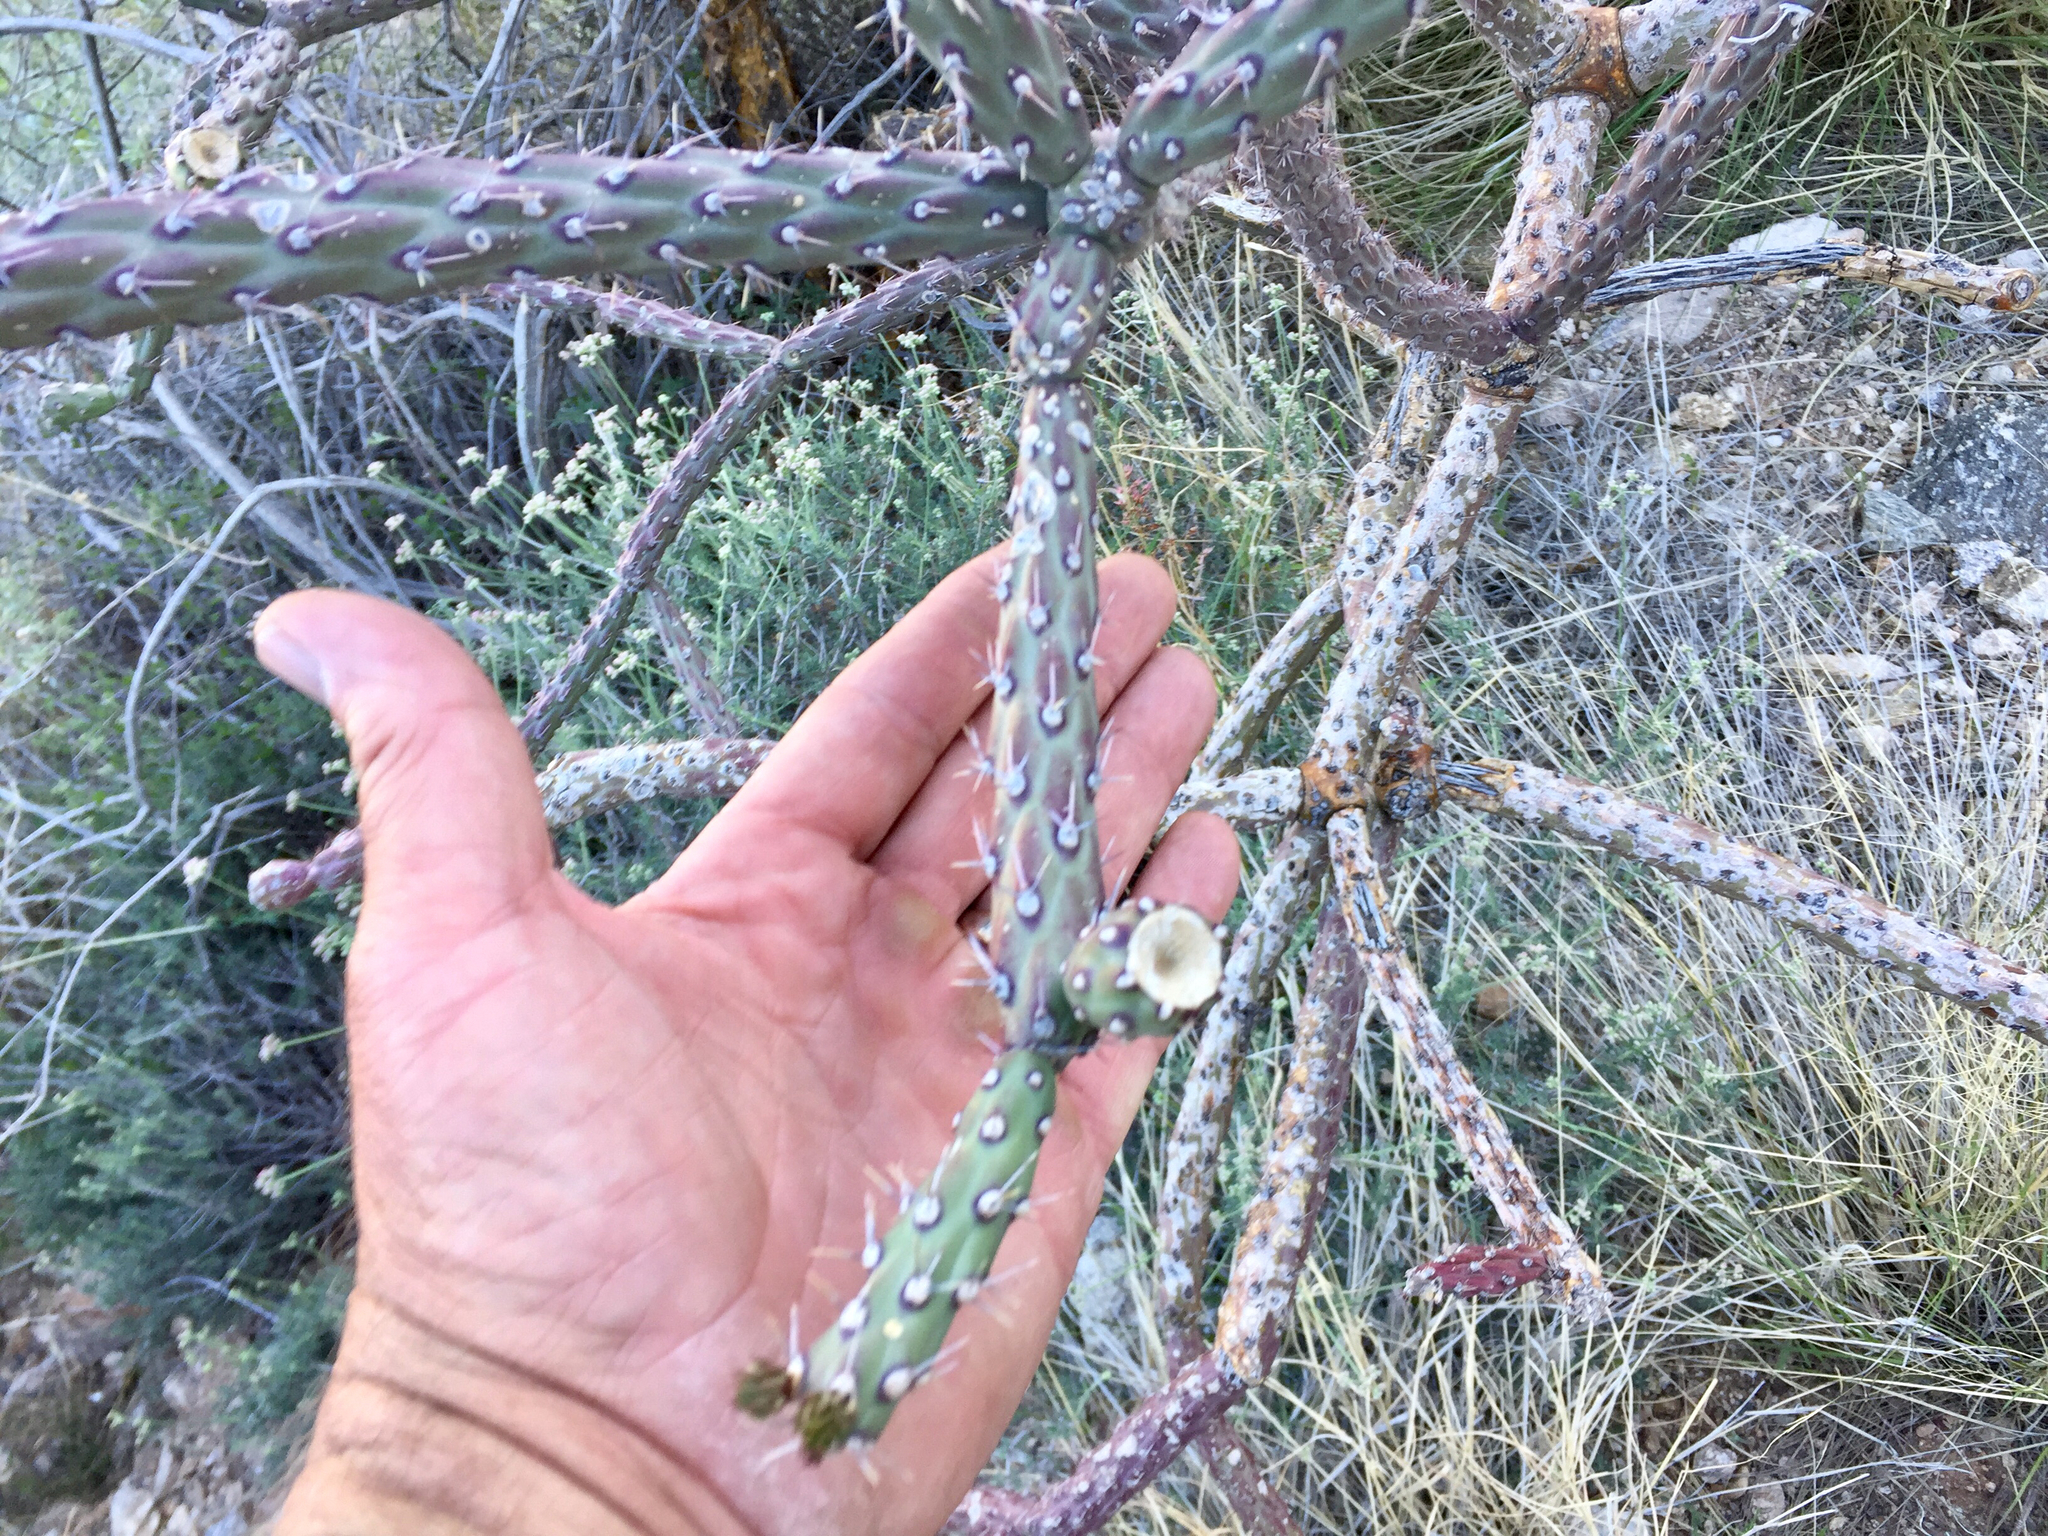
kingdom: Plantae
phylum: Tracheophyta
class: Magnoliopsida
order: Caryophyllales
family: Cactaceae
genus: Cylindropuntia
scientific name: Cylindropuntia thurberi
